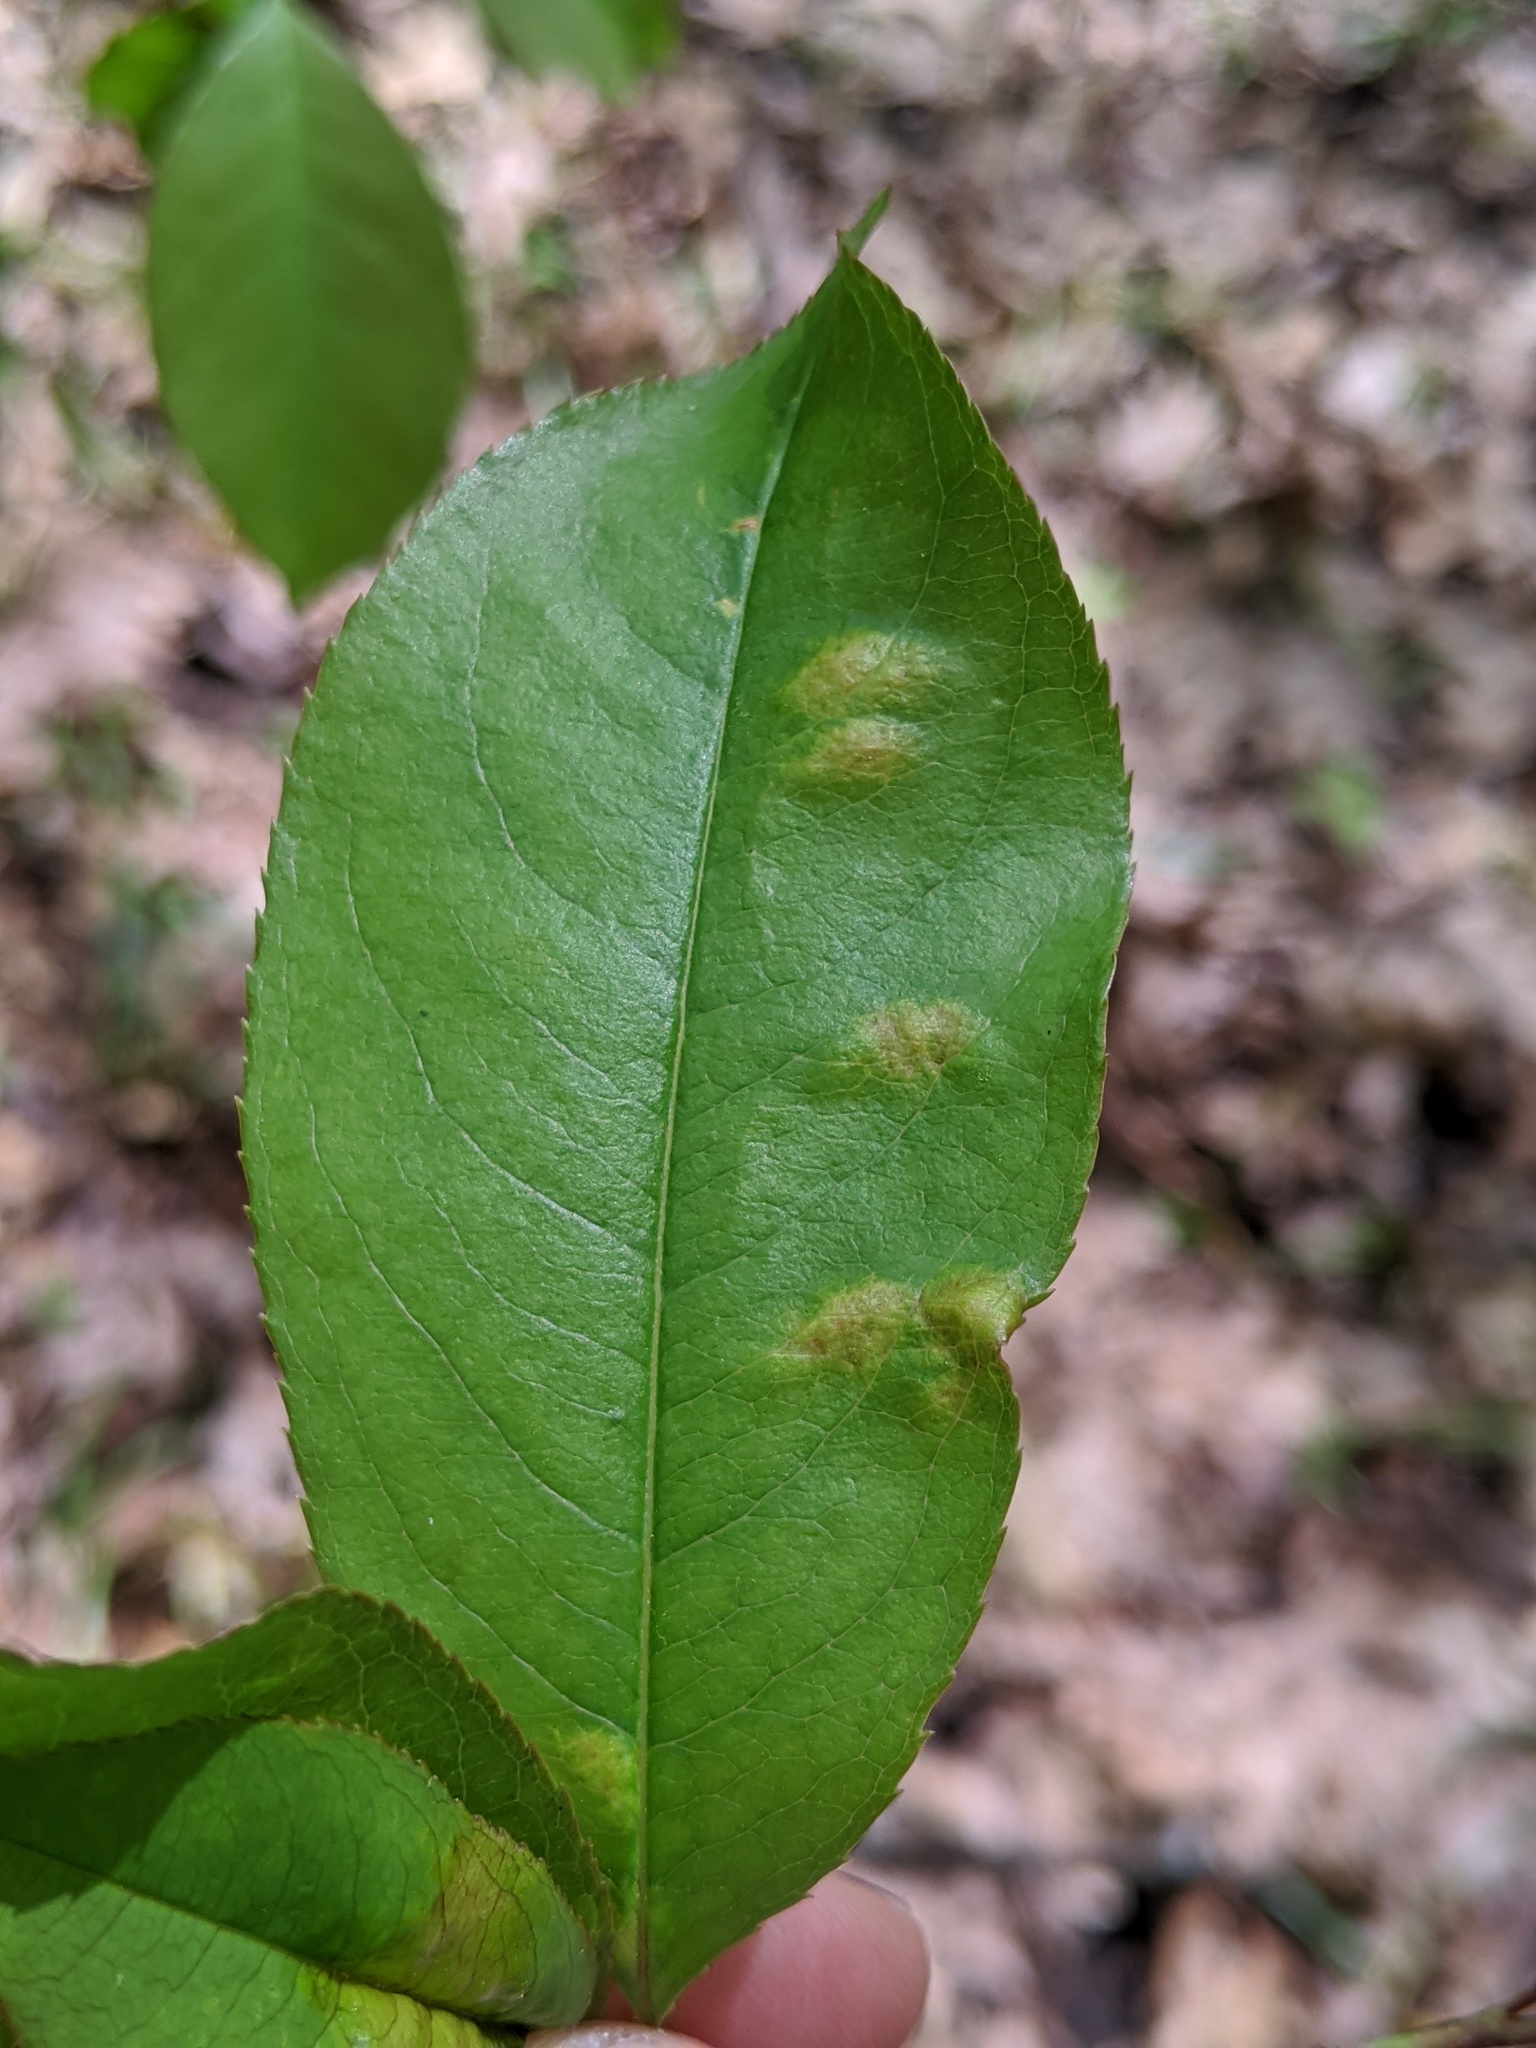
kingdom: Fungi
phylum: Ascomycota
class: Taphrinomycetes
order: Taphrinales
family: Taphrinaceae
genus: Taphrina
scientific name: Taphrina farlowii
